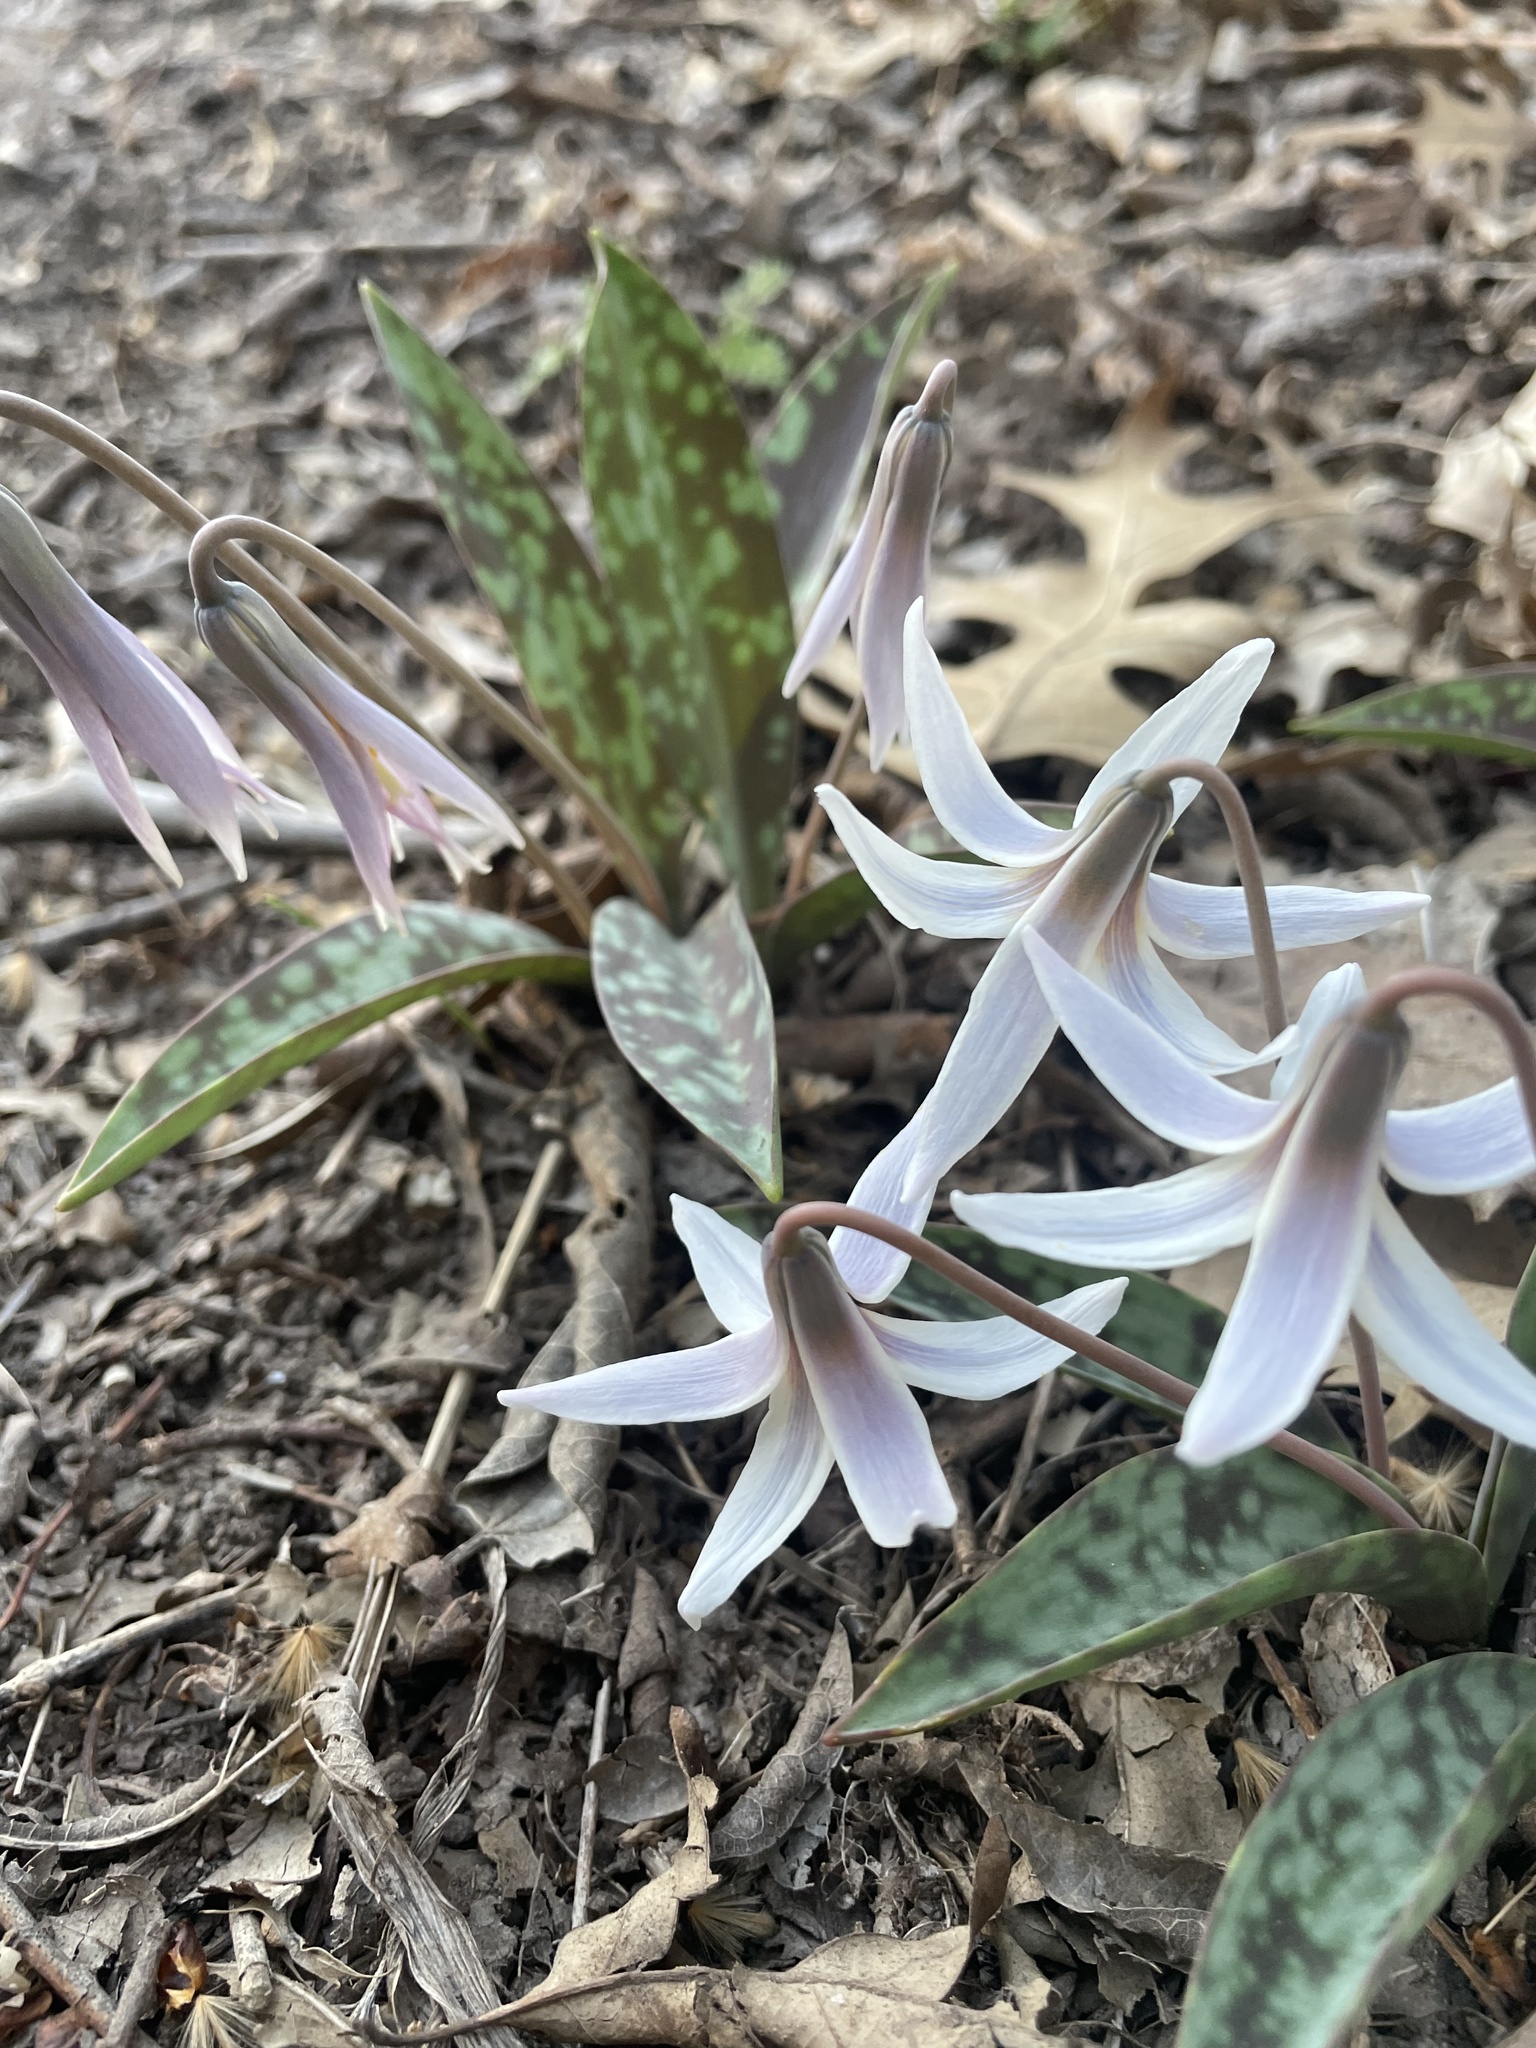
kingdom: Plantae
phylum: Tracheophyta
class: Liliopsida
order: Liliales
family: Liliaceae
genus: Erythronium
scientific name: Erythronium albidum
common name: White trout-lily
